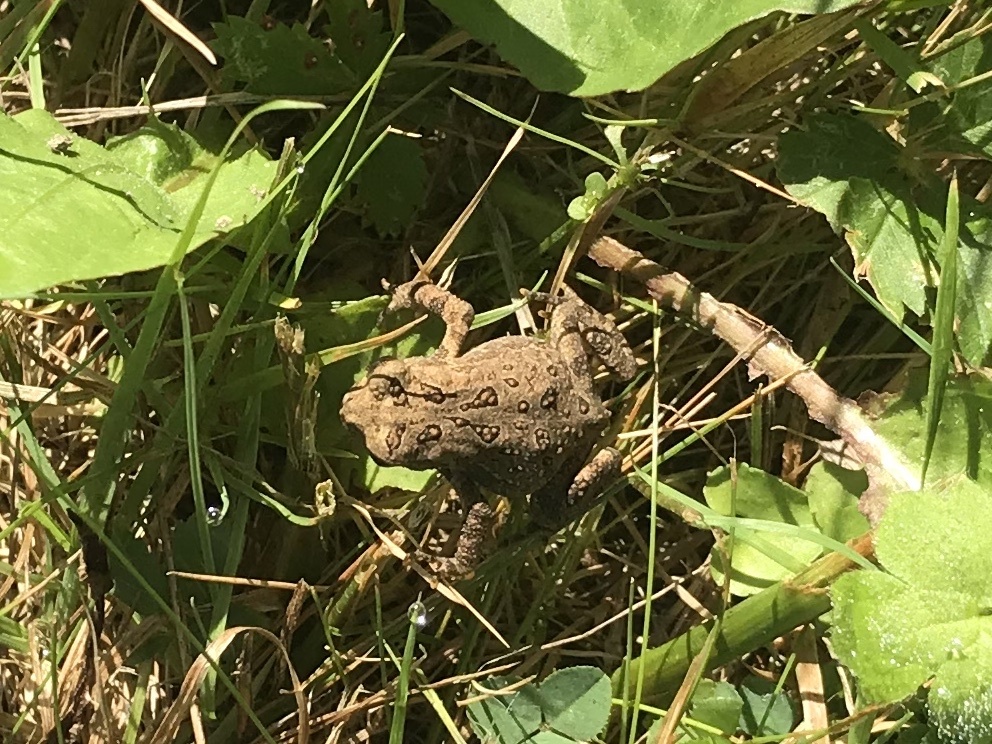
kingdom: Animalia
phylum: Chordata
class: Amphibia
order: Anura
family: Bufonidae
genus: Anaxyrus
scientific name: Anaxyrus americanus
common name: American toad
